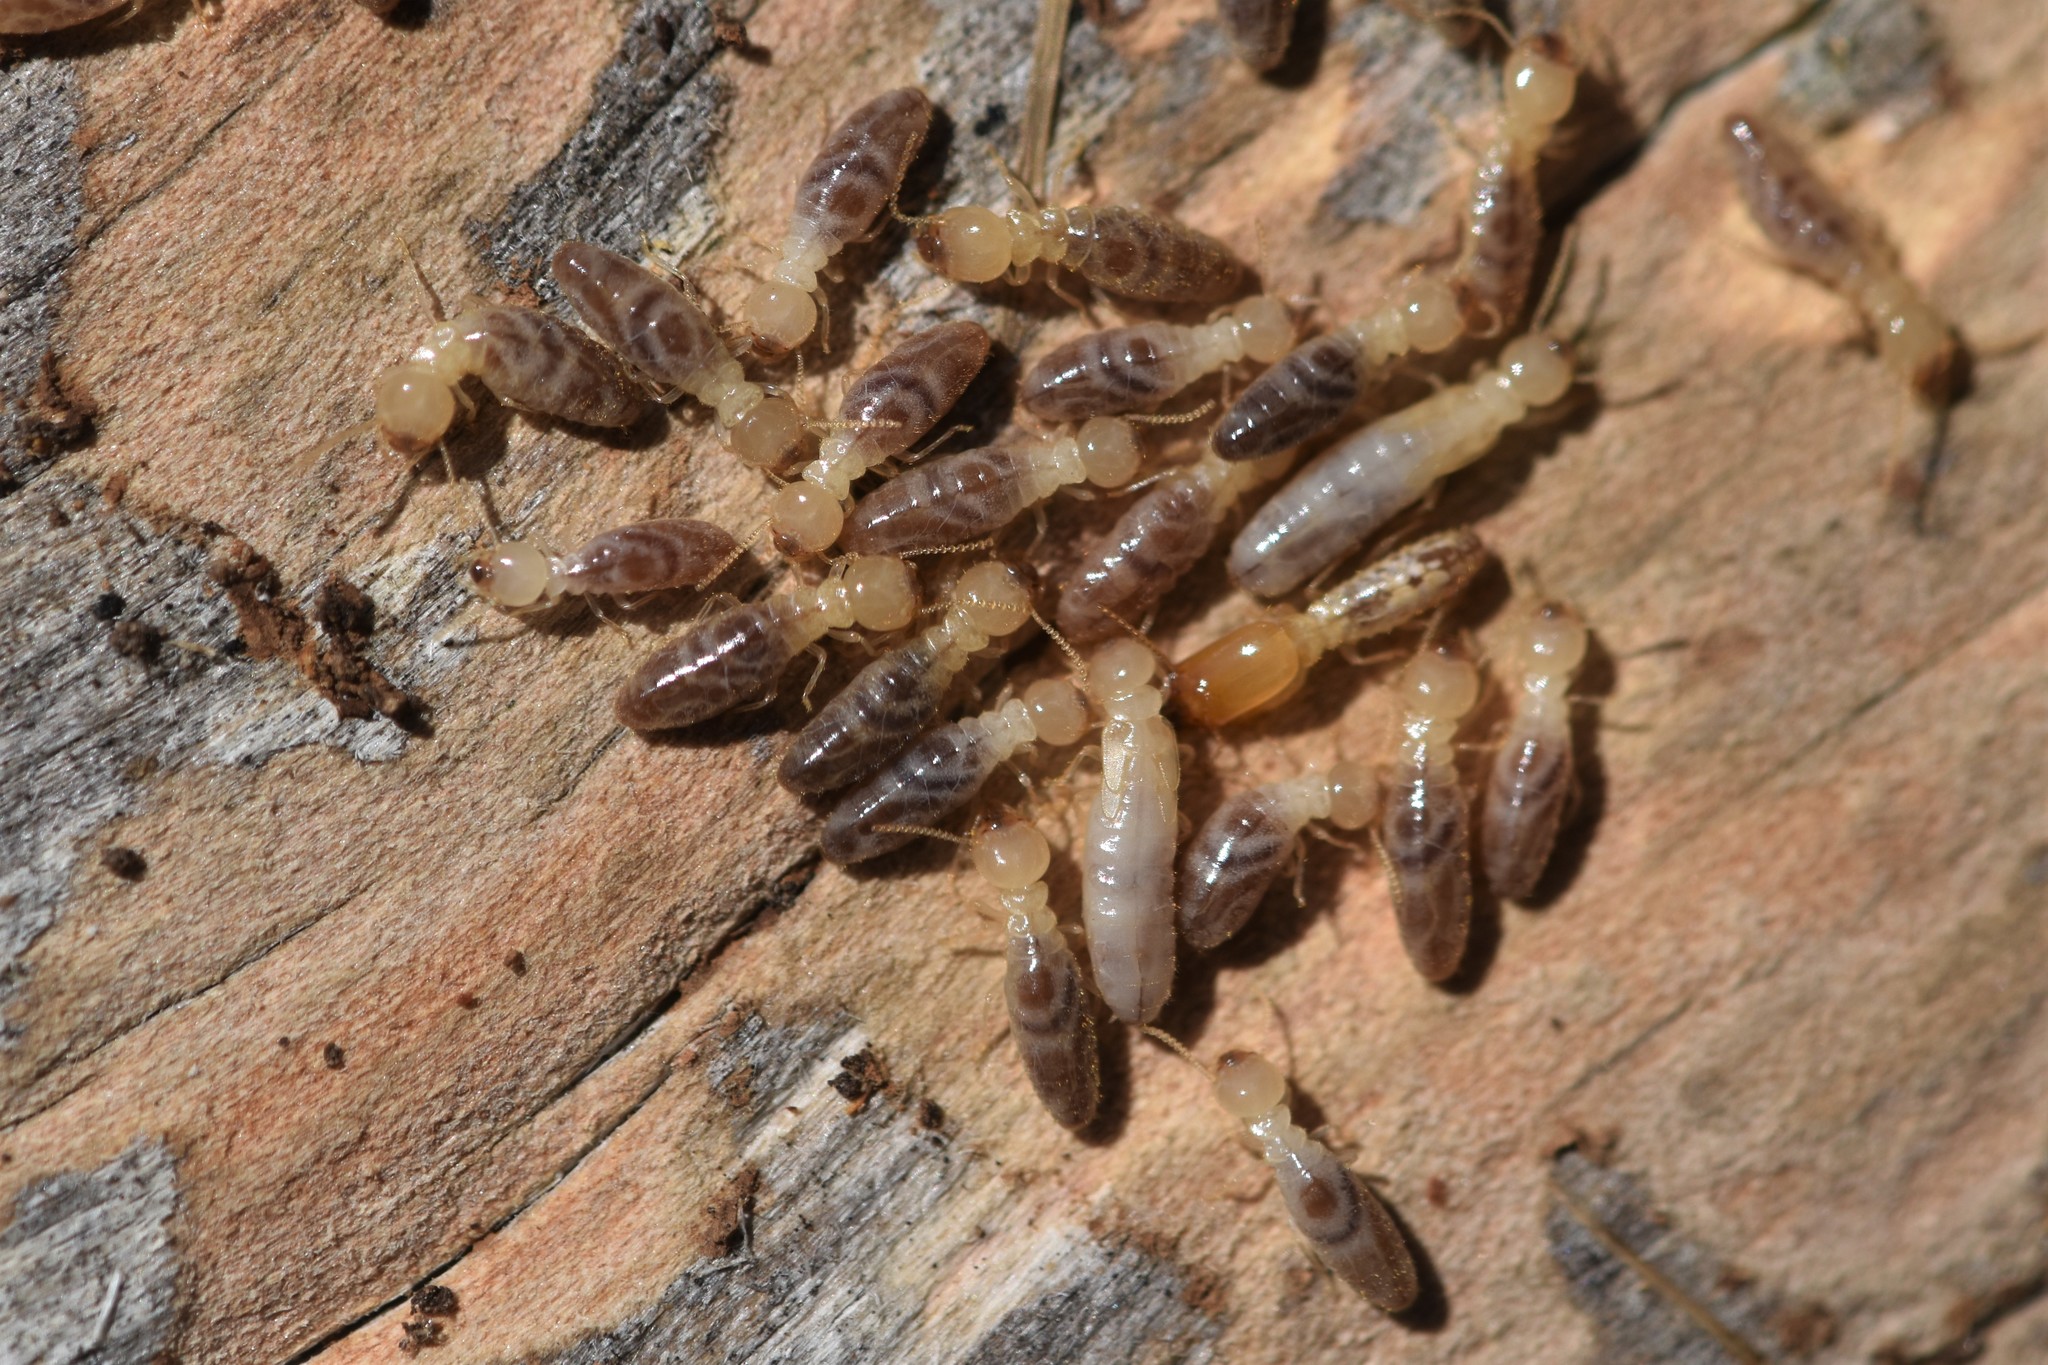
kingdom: Animalia
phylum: Arthropoda
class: Insecta
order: Blattodea
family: Rhinotermitidae
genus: Reticulitermes
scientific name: Reticulitermes hesperus
